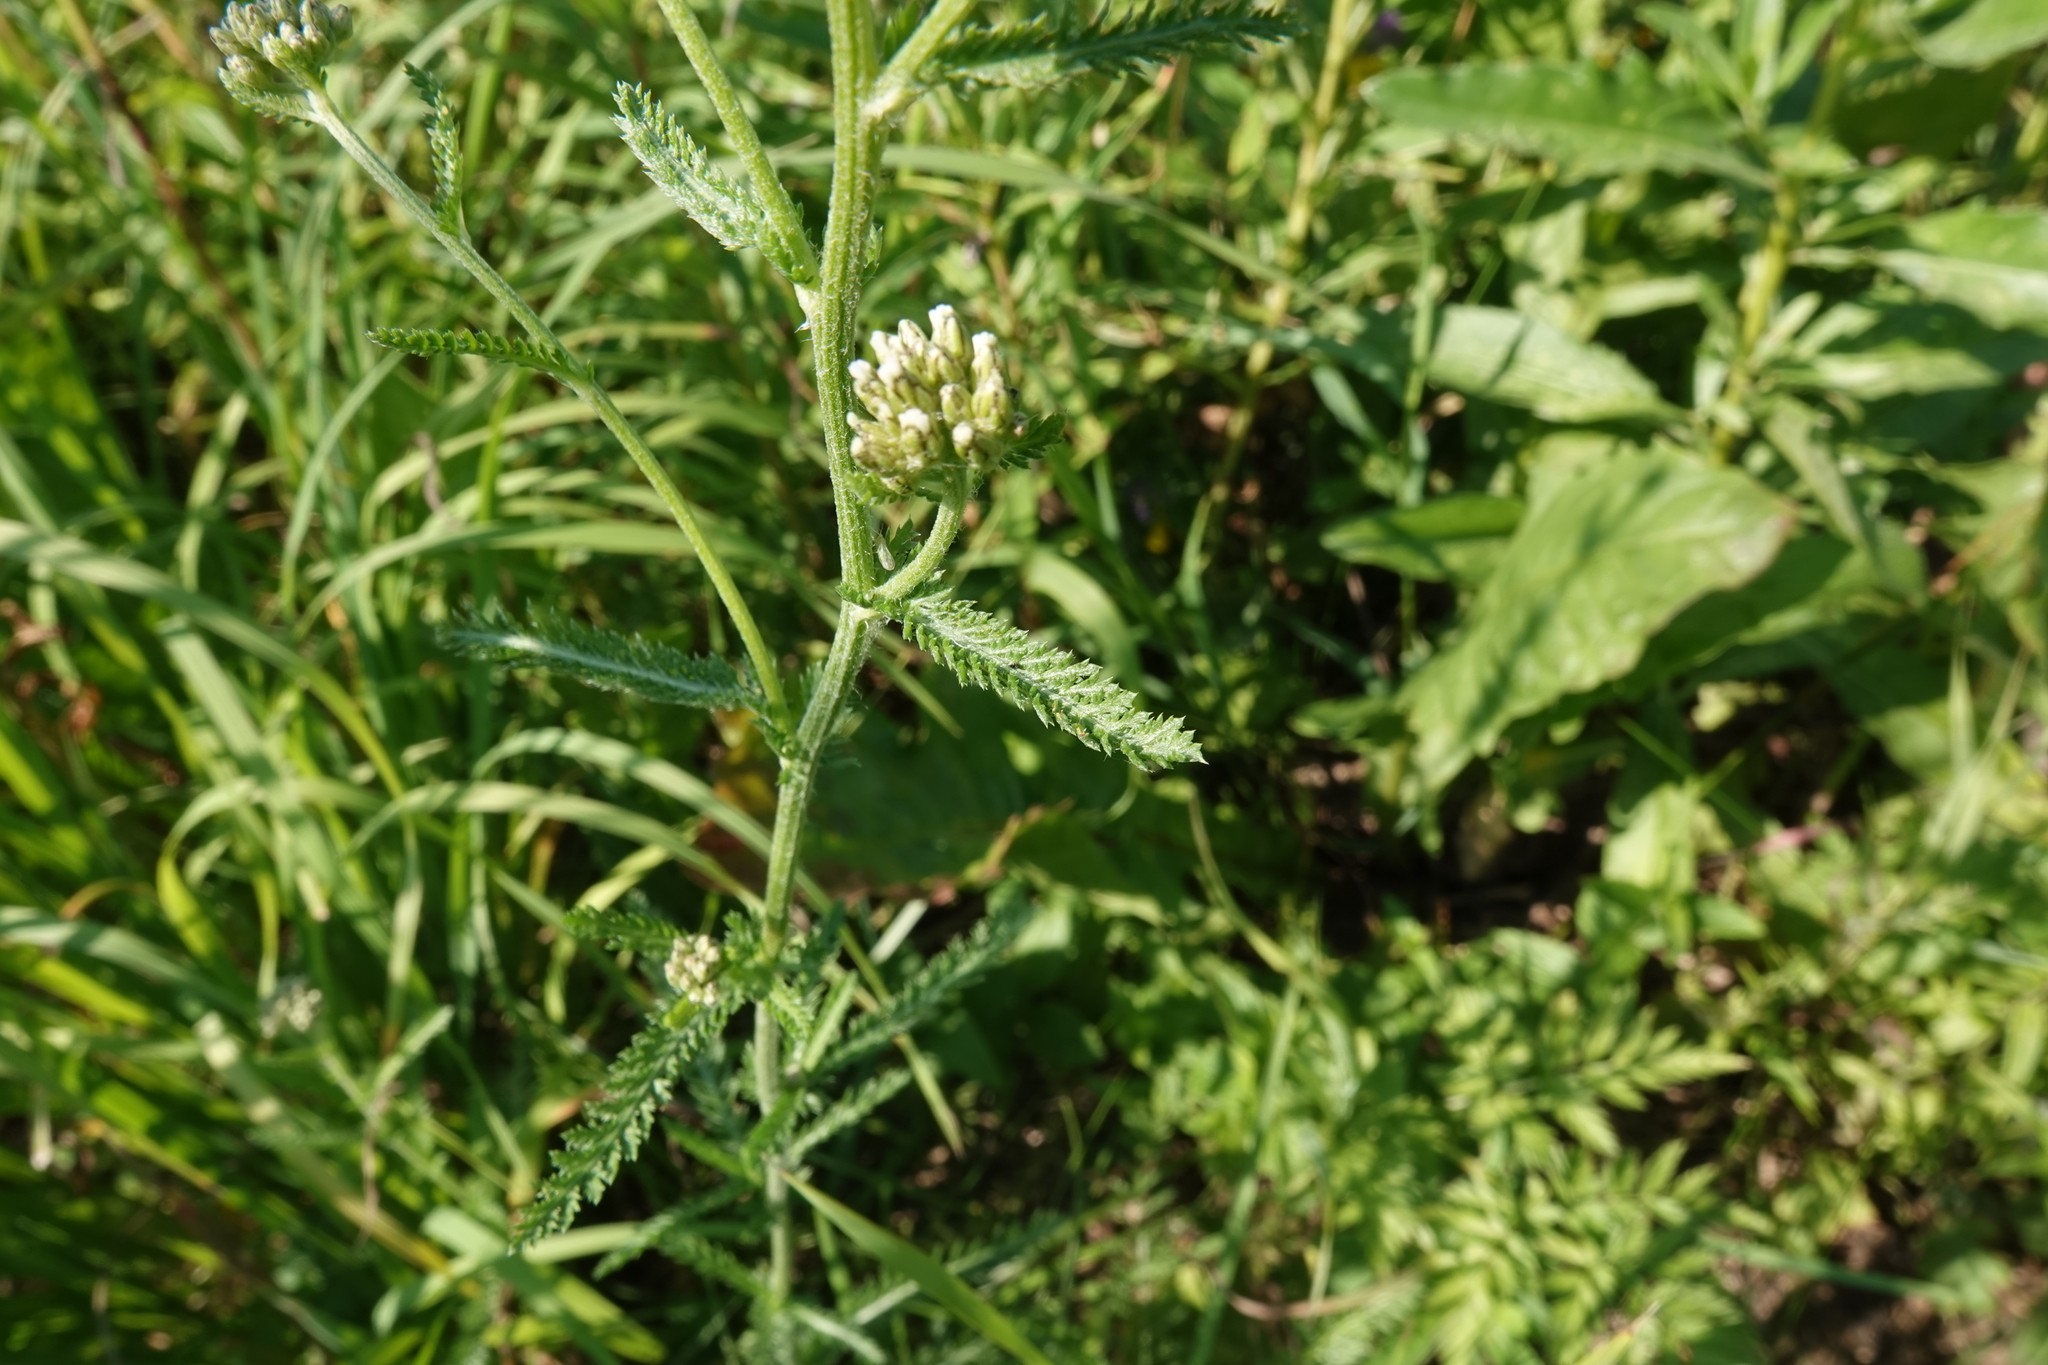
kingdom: Plantae
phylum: Tracheophyta
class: Magnoliopsida
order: Asterales
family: Asteraceae
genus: Achillea
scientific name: Achillea millefolium
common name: Yarrow
